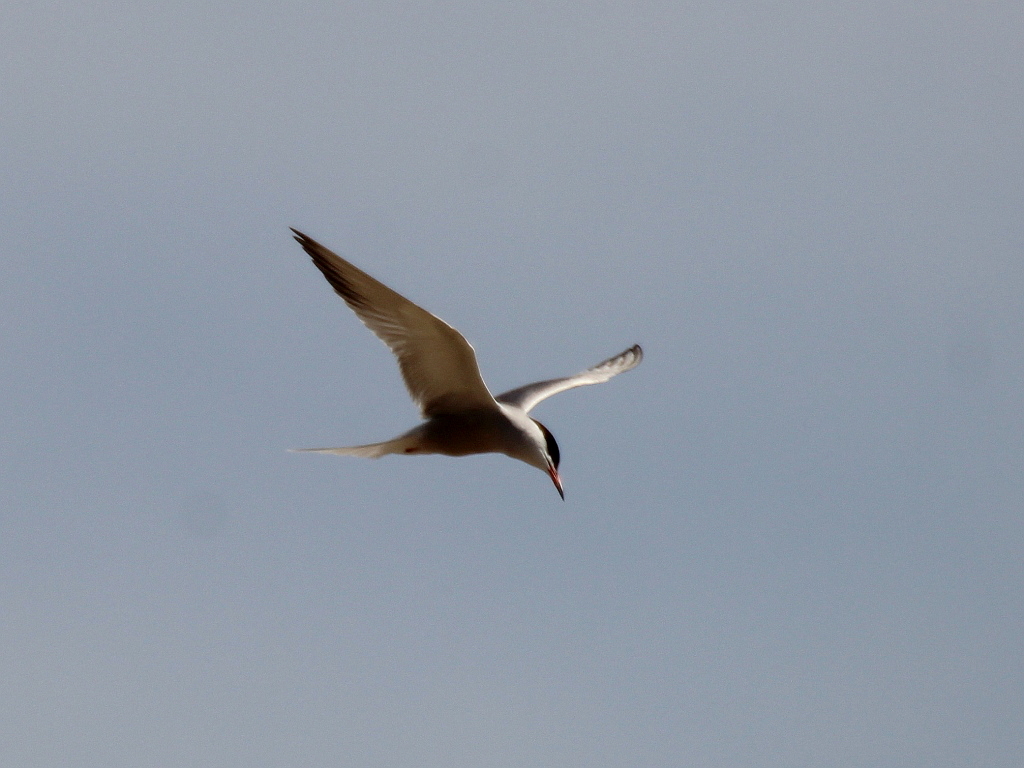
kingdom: Animalia
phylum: Chordata
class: Aves
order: Charadriiformes
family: Laridae
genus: Sterna
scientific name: Sterna hirundo
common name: Common tern
